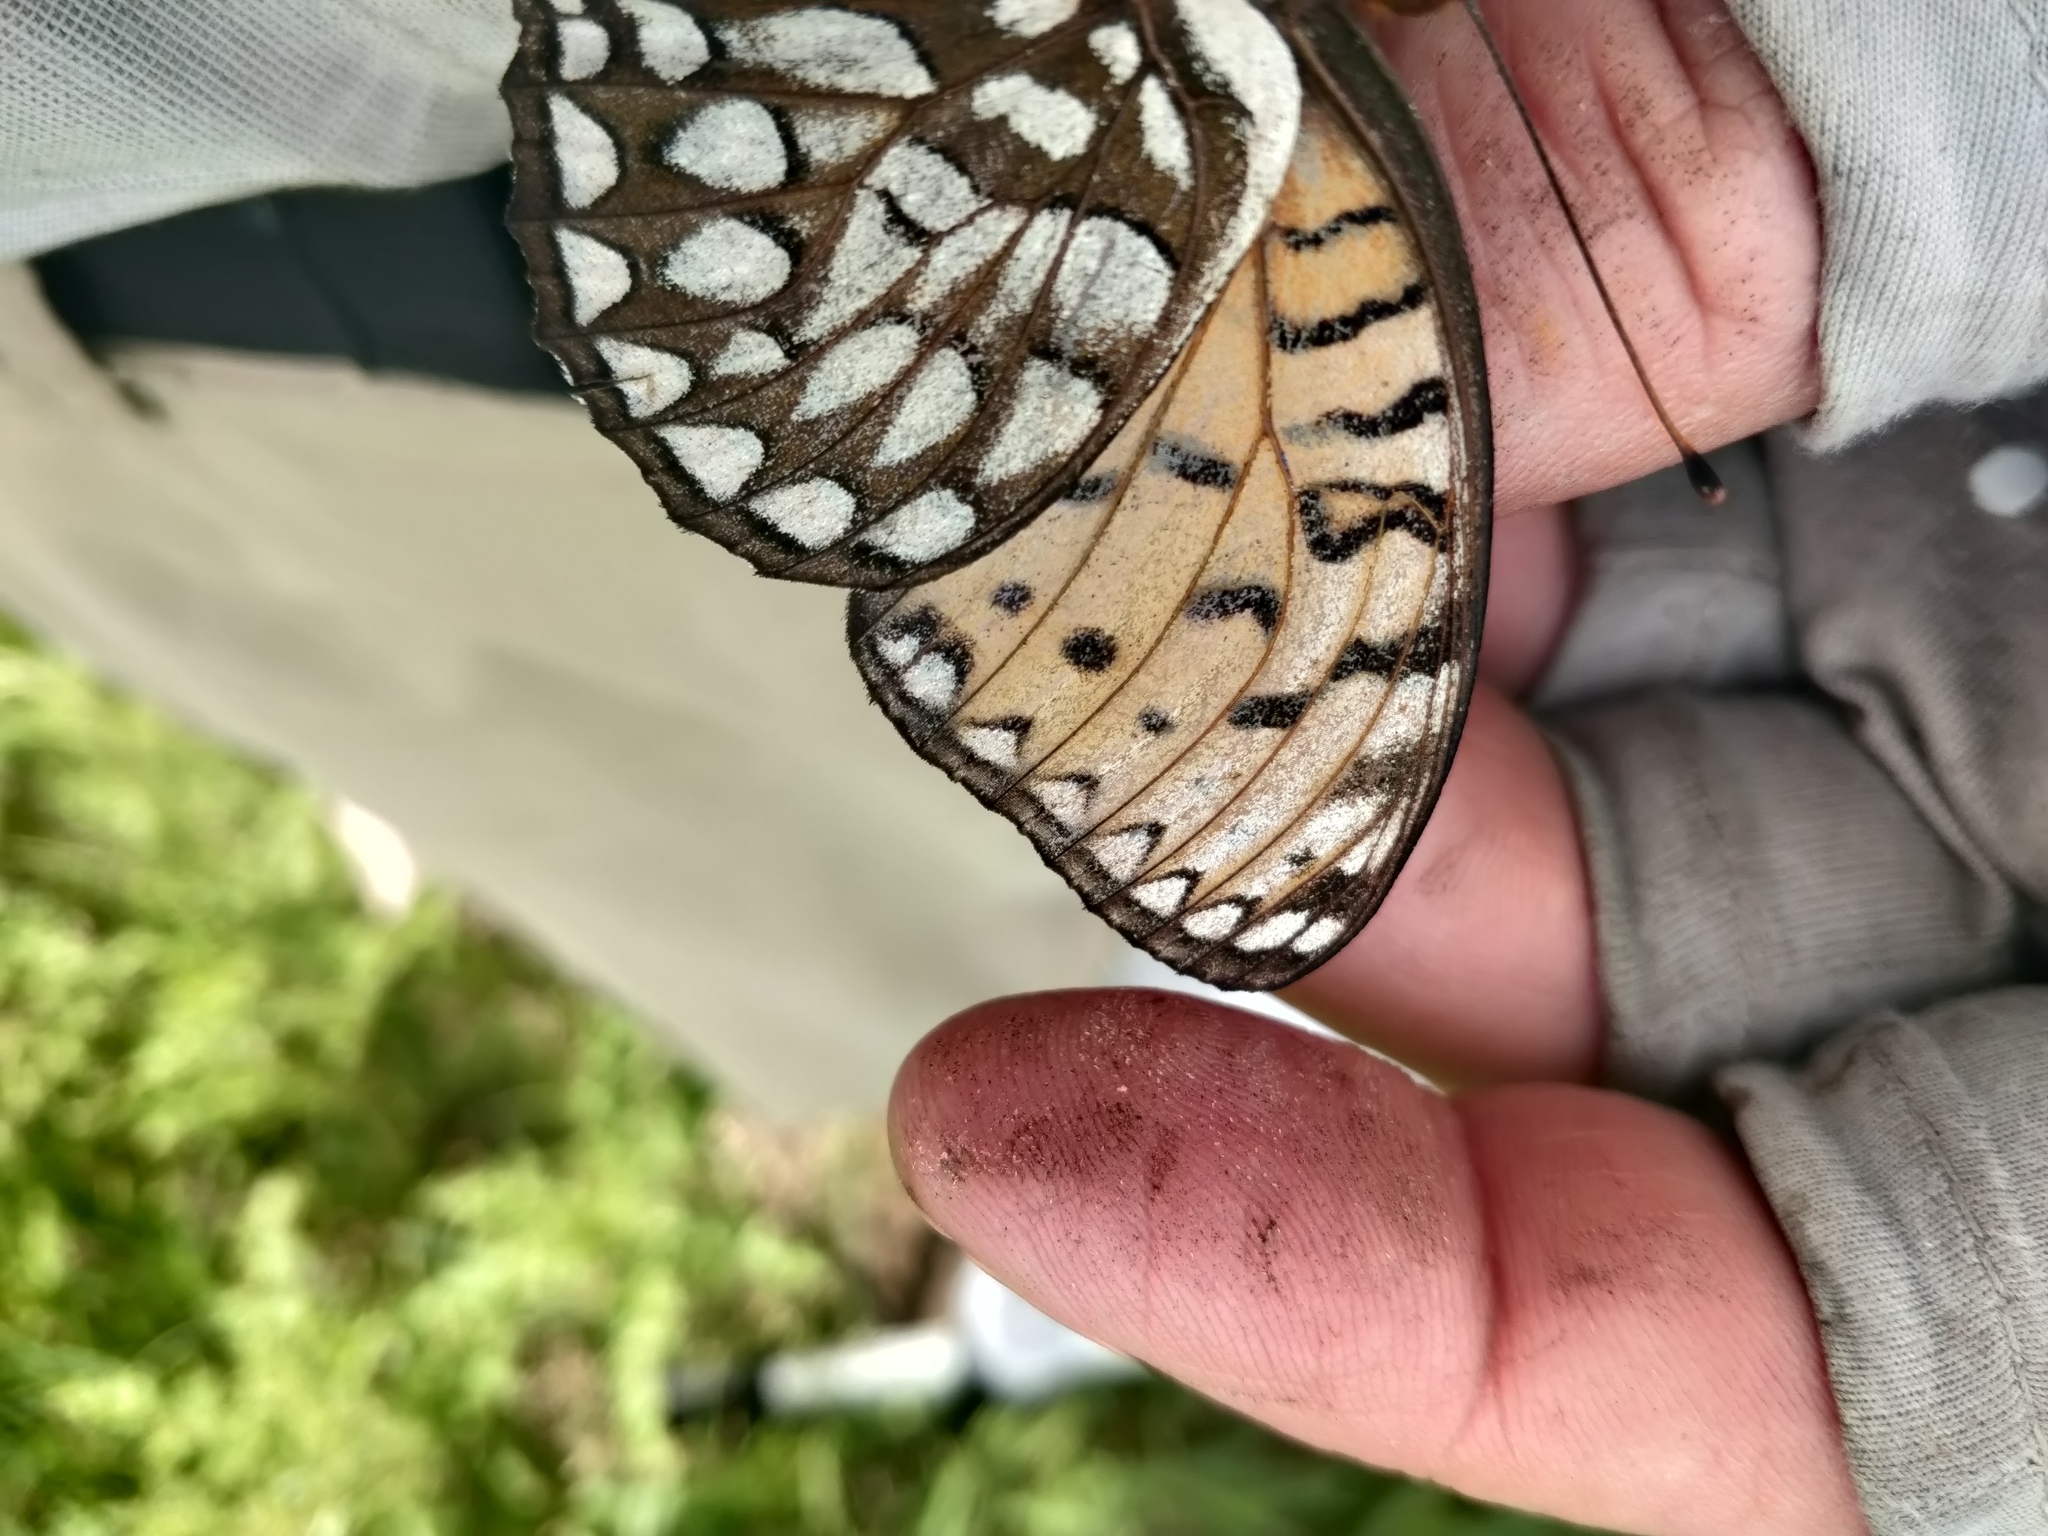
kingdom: Animalia
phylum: Arthropoda
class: Insecta
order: Lepidoptera
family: Nymphalidae
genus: Speyeria
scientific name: Speyeria idalia
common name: Regal fritillary
